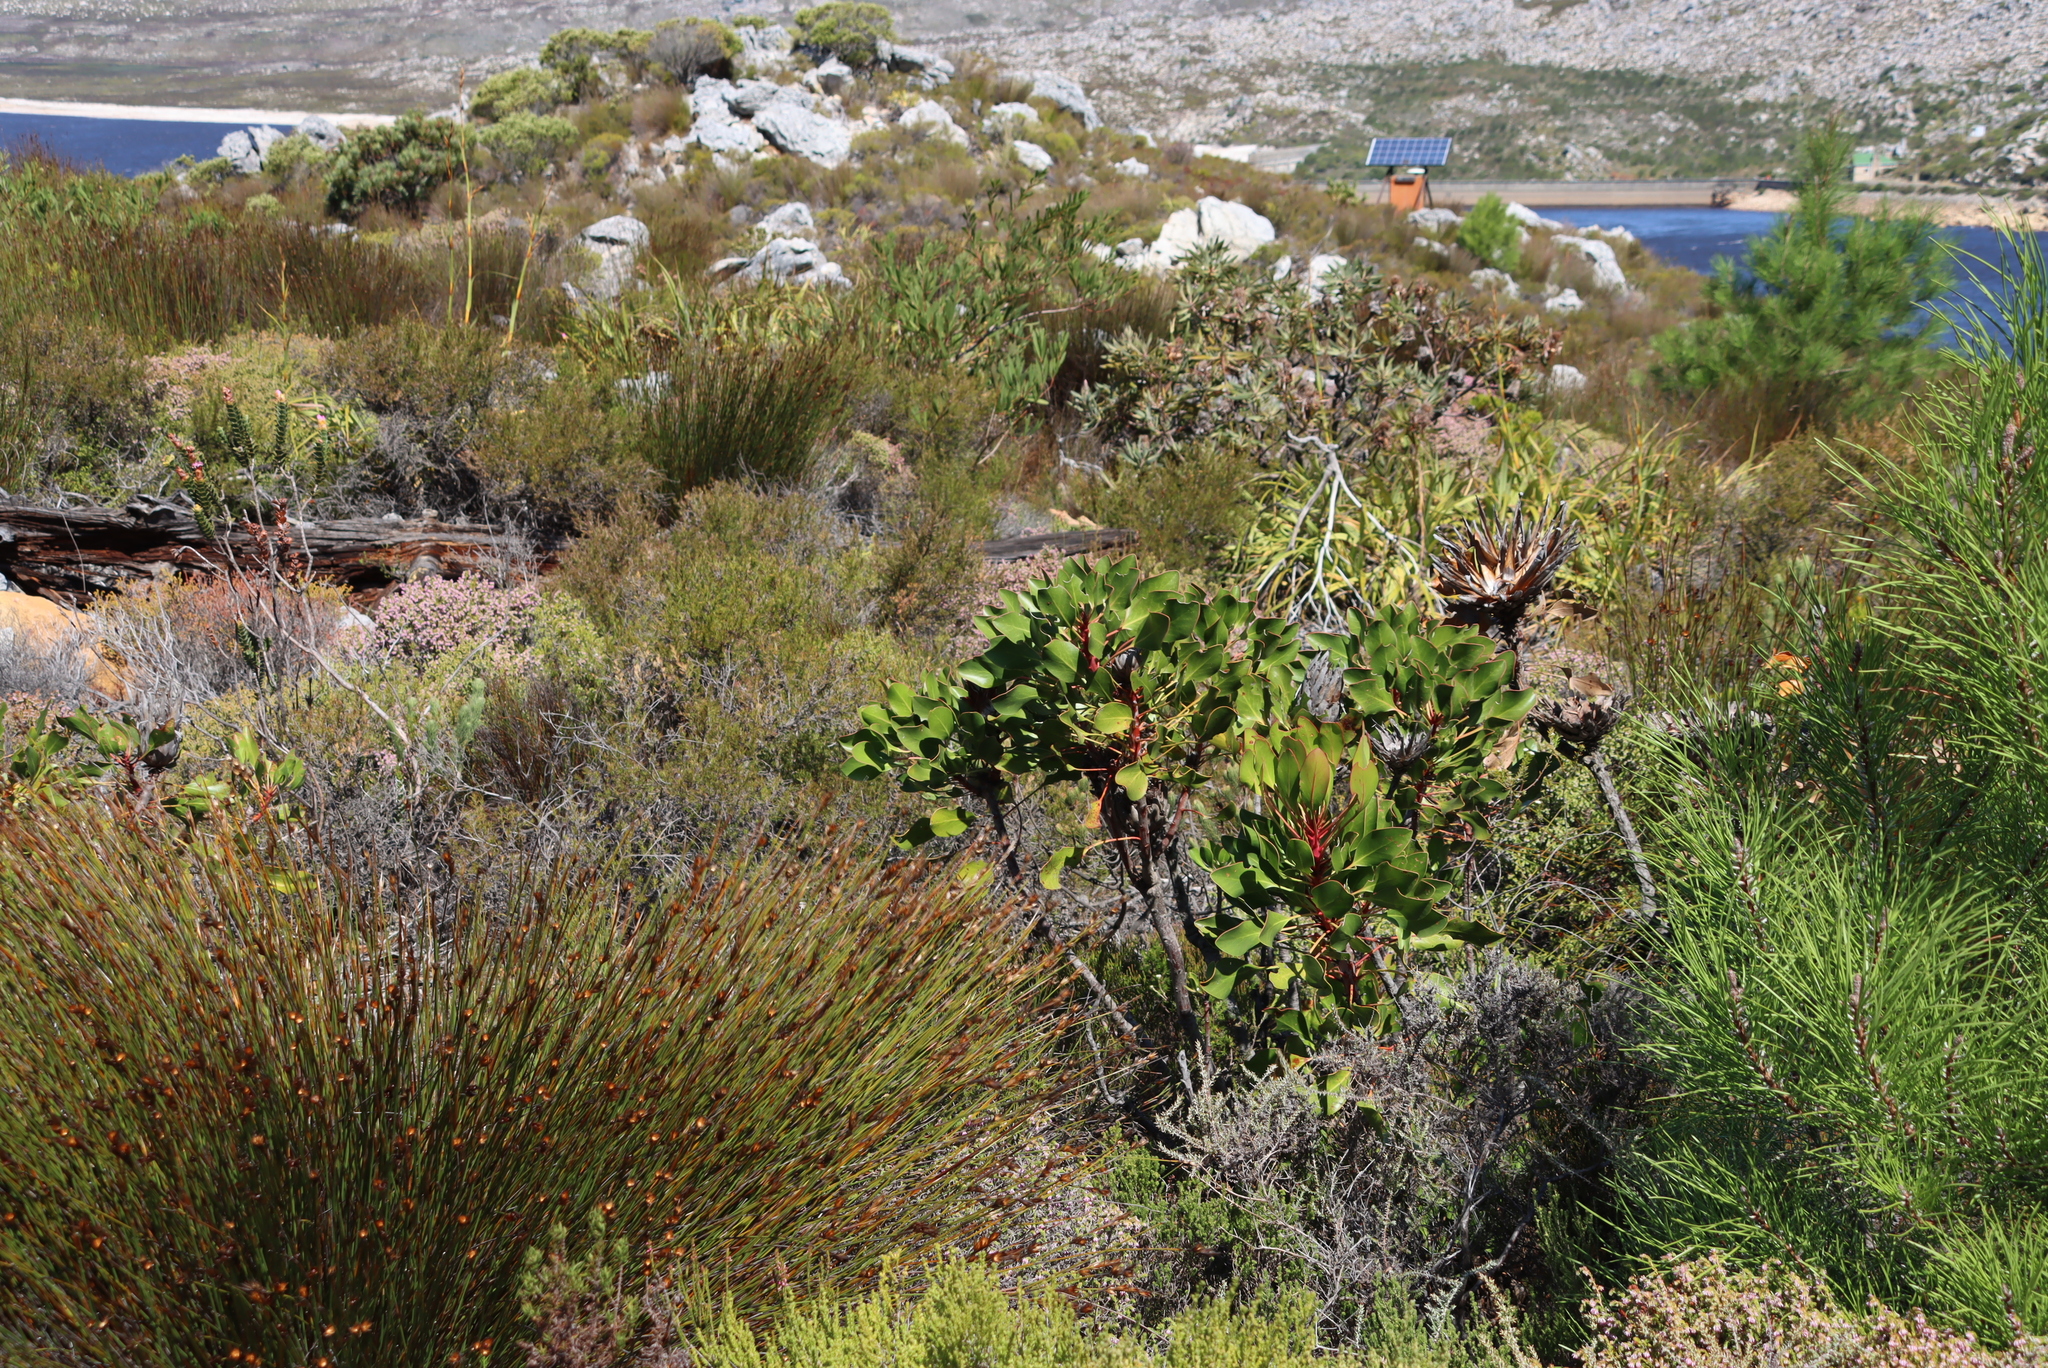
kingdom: Plantae
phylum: Tracheophyta
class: Magnoliopsida
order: Proteales
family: Proteaceae
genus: Protea
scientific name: Protea cynaroides
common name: King protea
